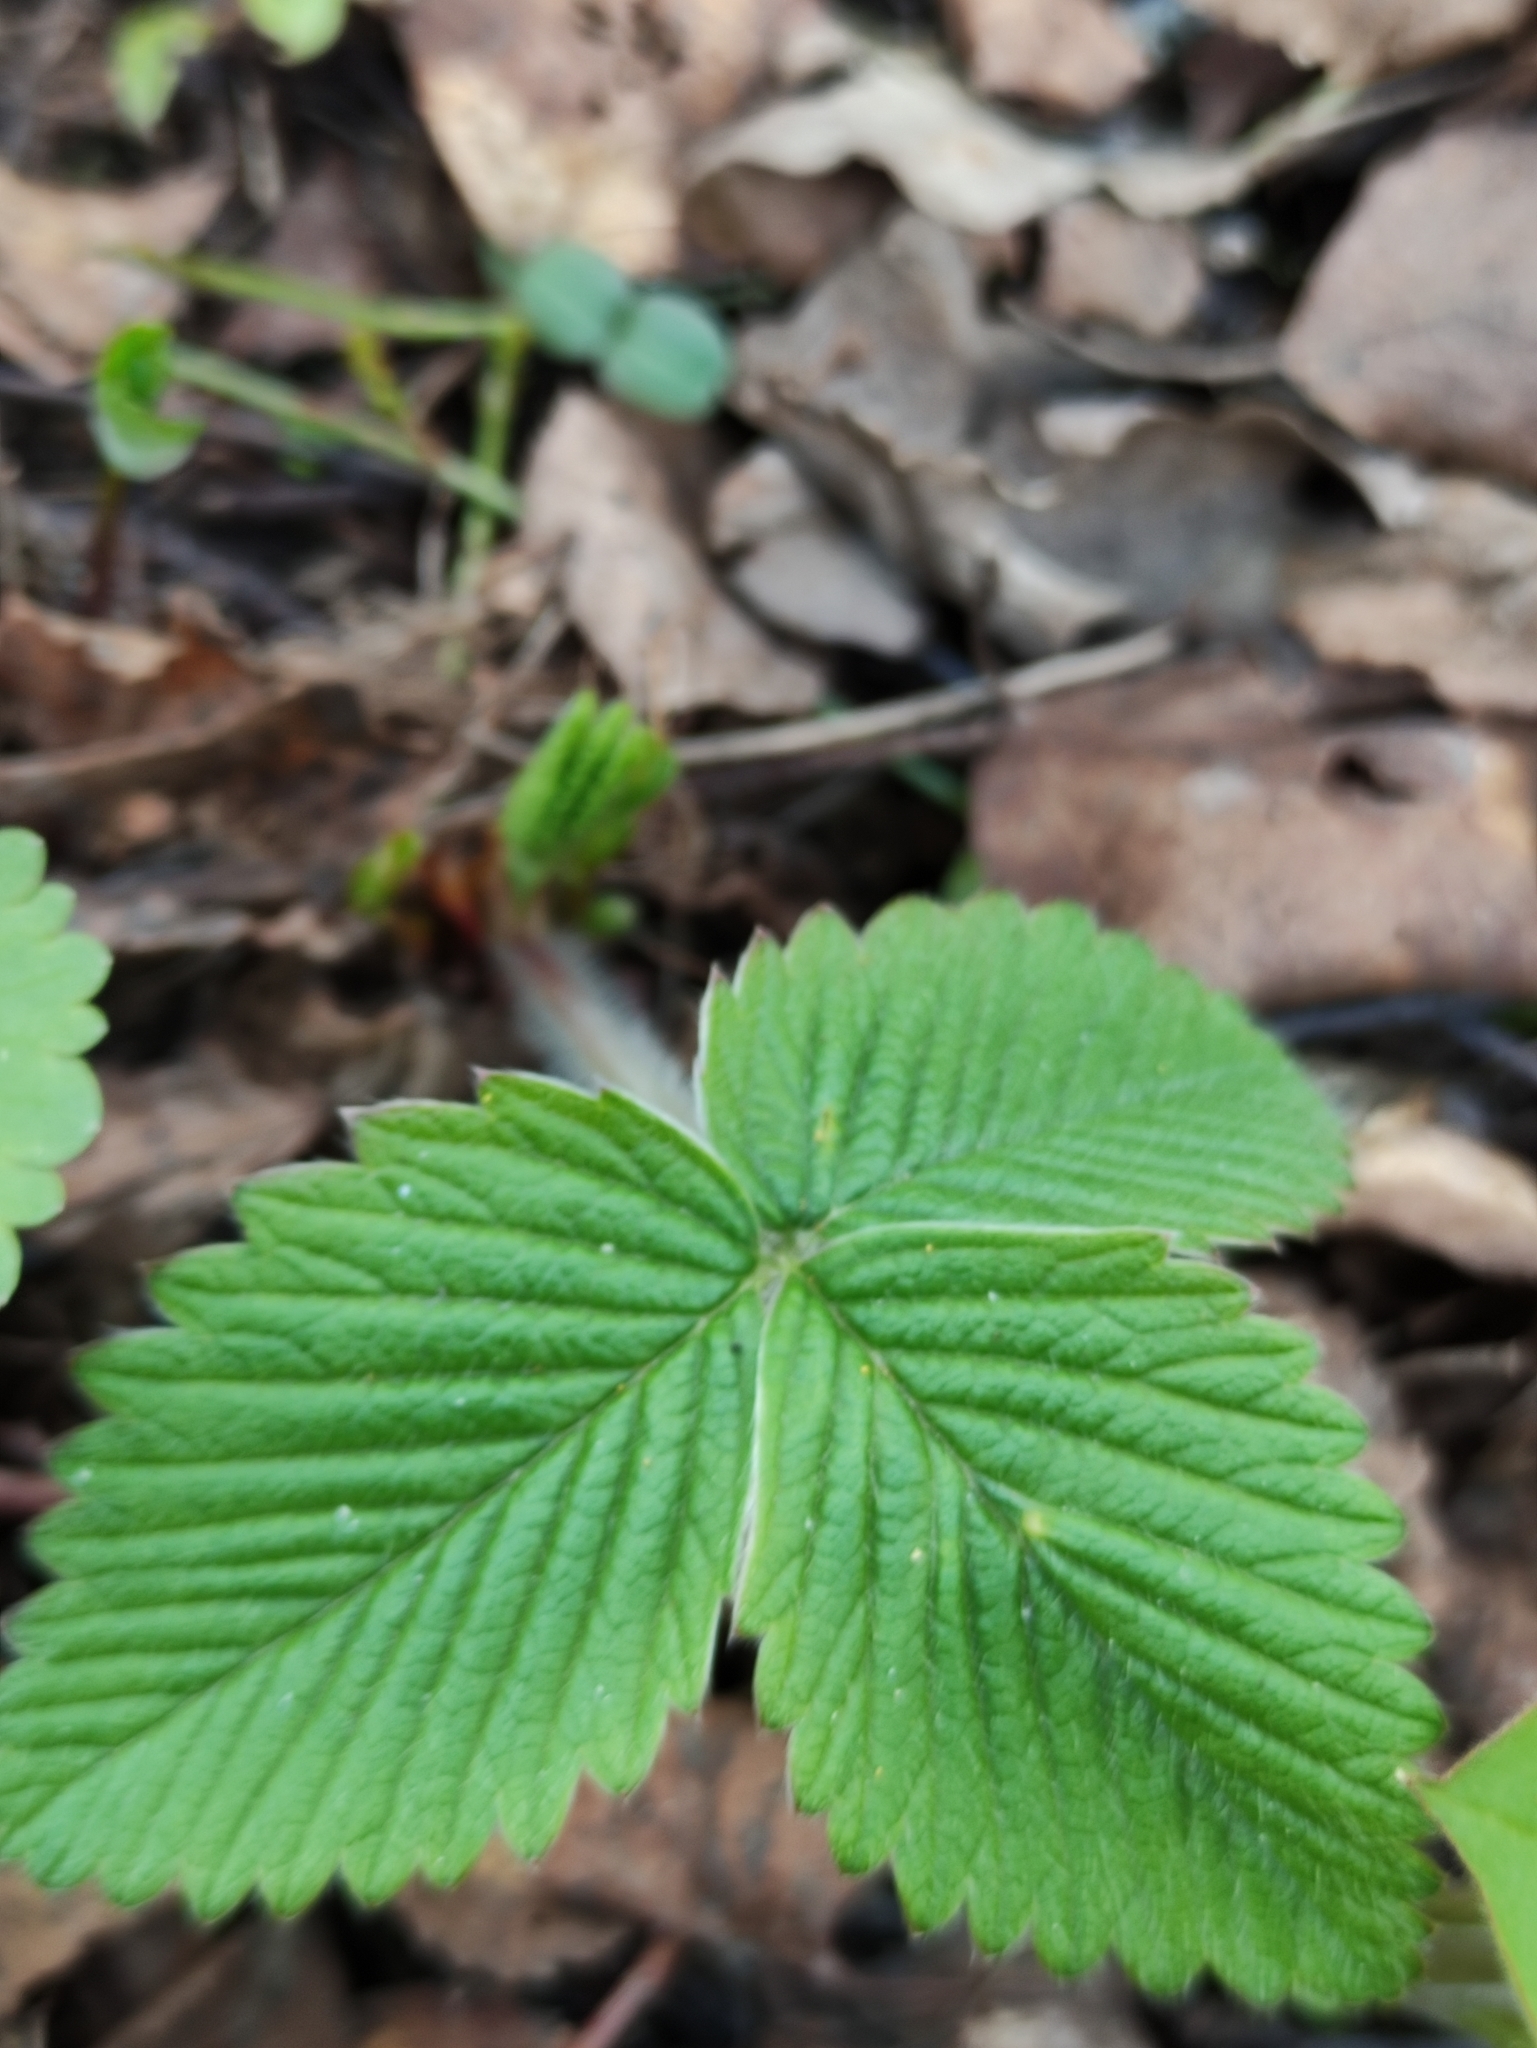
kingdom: Plantae
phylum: Tracheophyta
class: Magnoliopsida
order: Rosales
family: Rosaceae
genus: Fragaria
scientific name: Fragaria moschata
